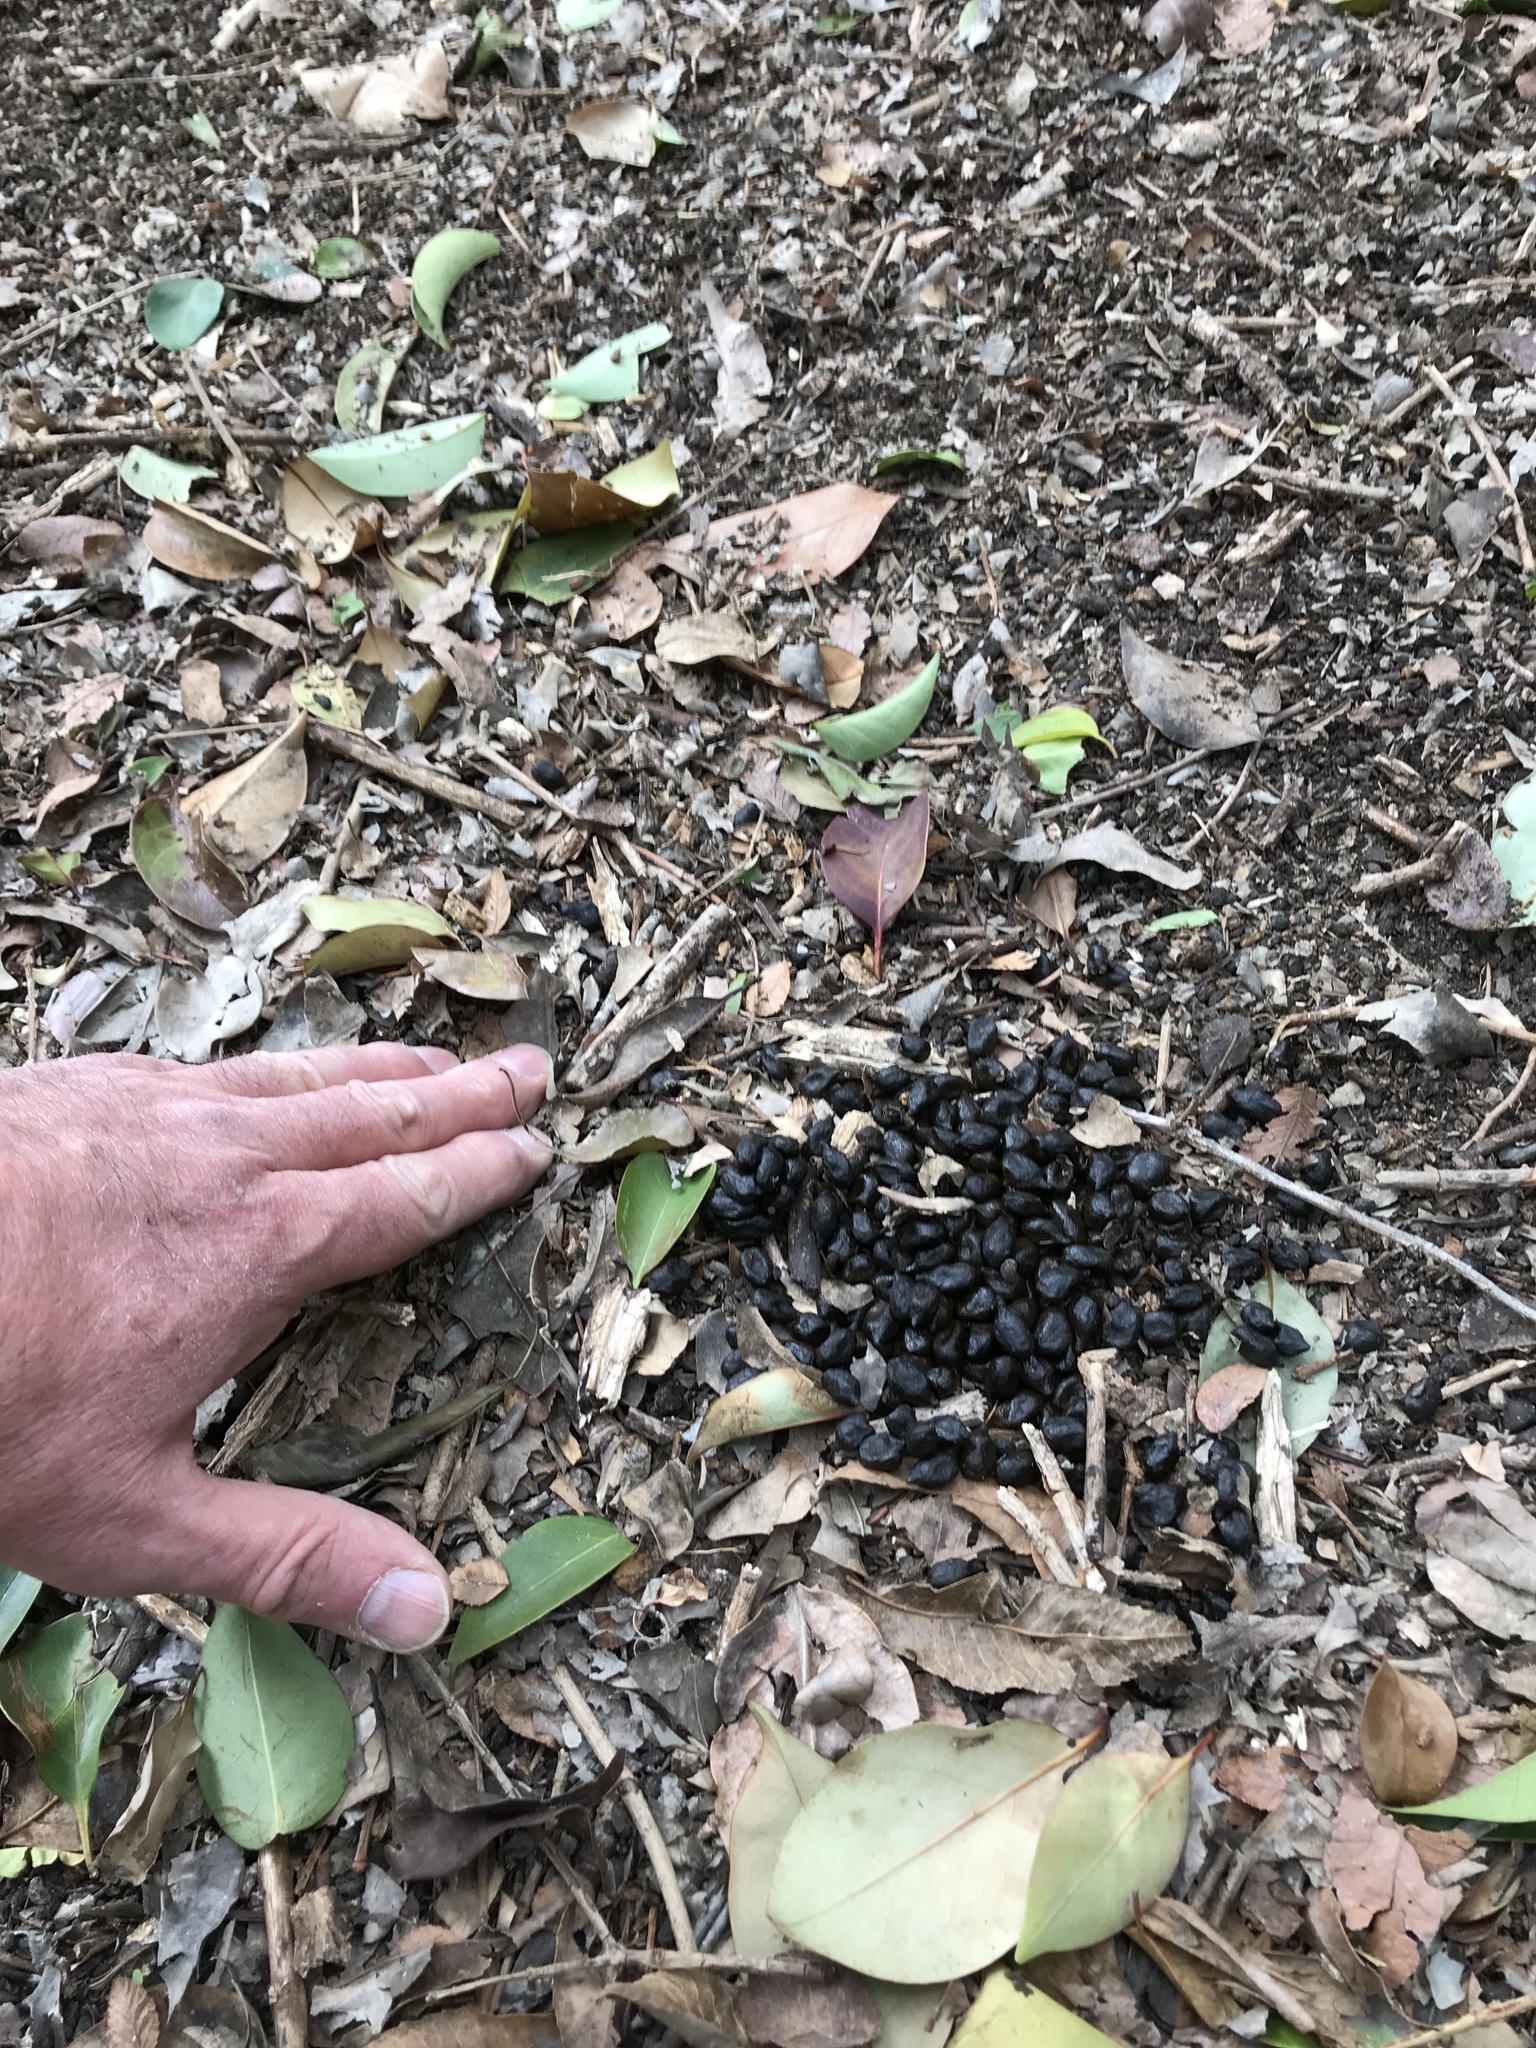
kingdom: Animalia
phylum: Chordata
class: Mammalia
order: Artiodactyla
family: Cervidae
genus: Odocoileus
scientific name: Odocoileus virginianus
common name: White-tailed deer
